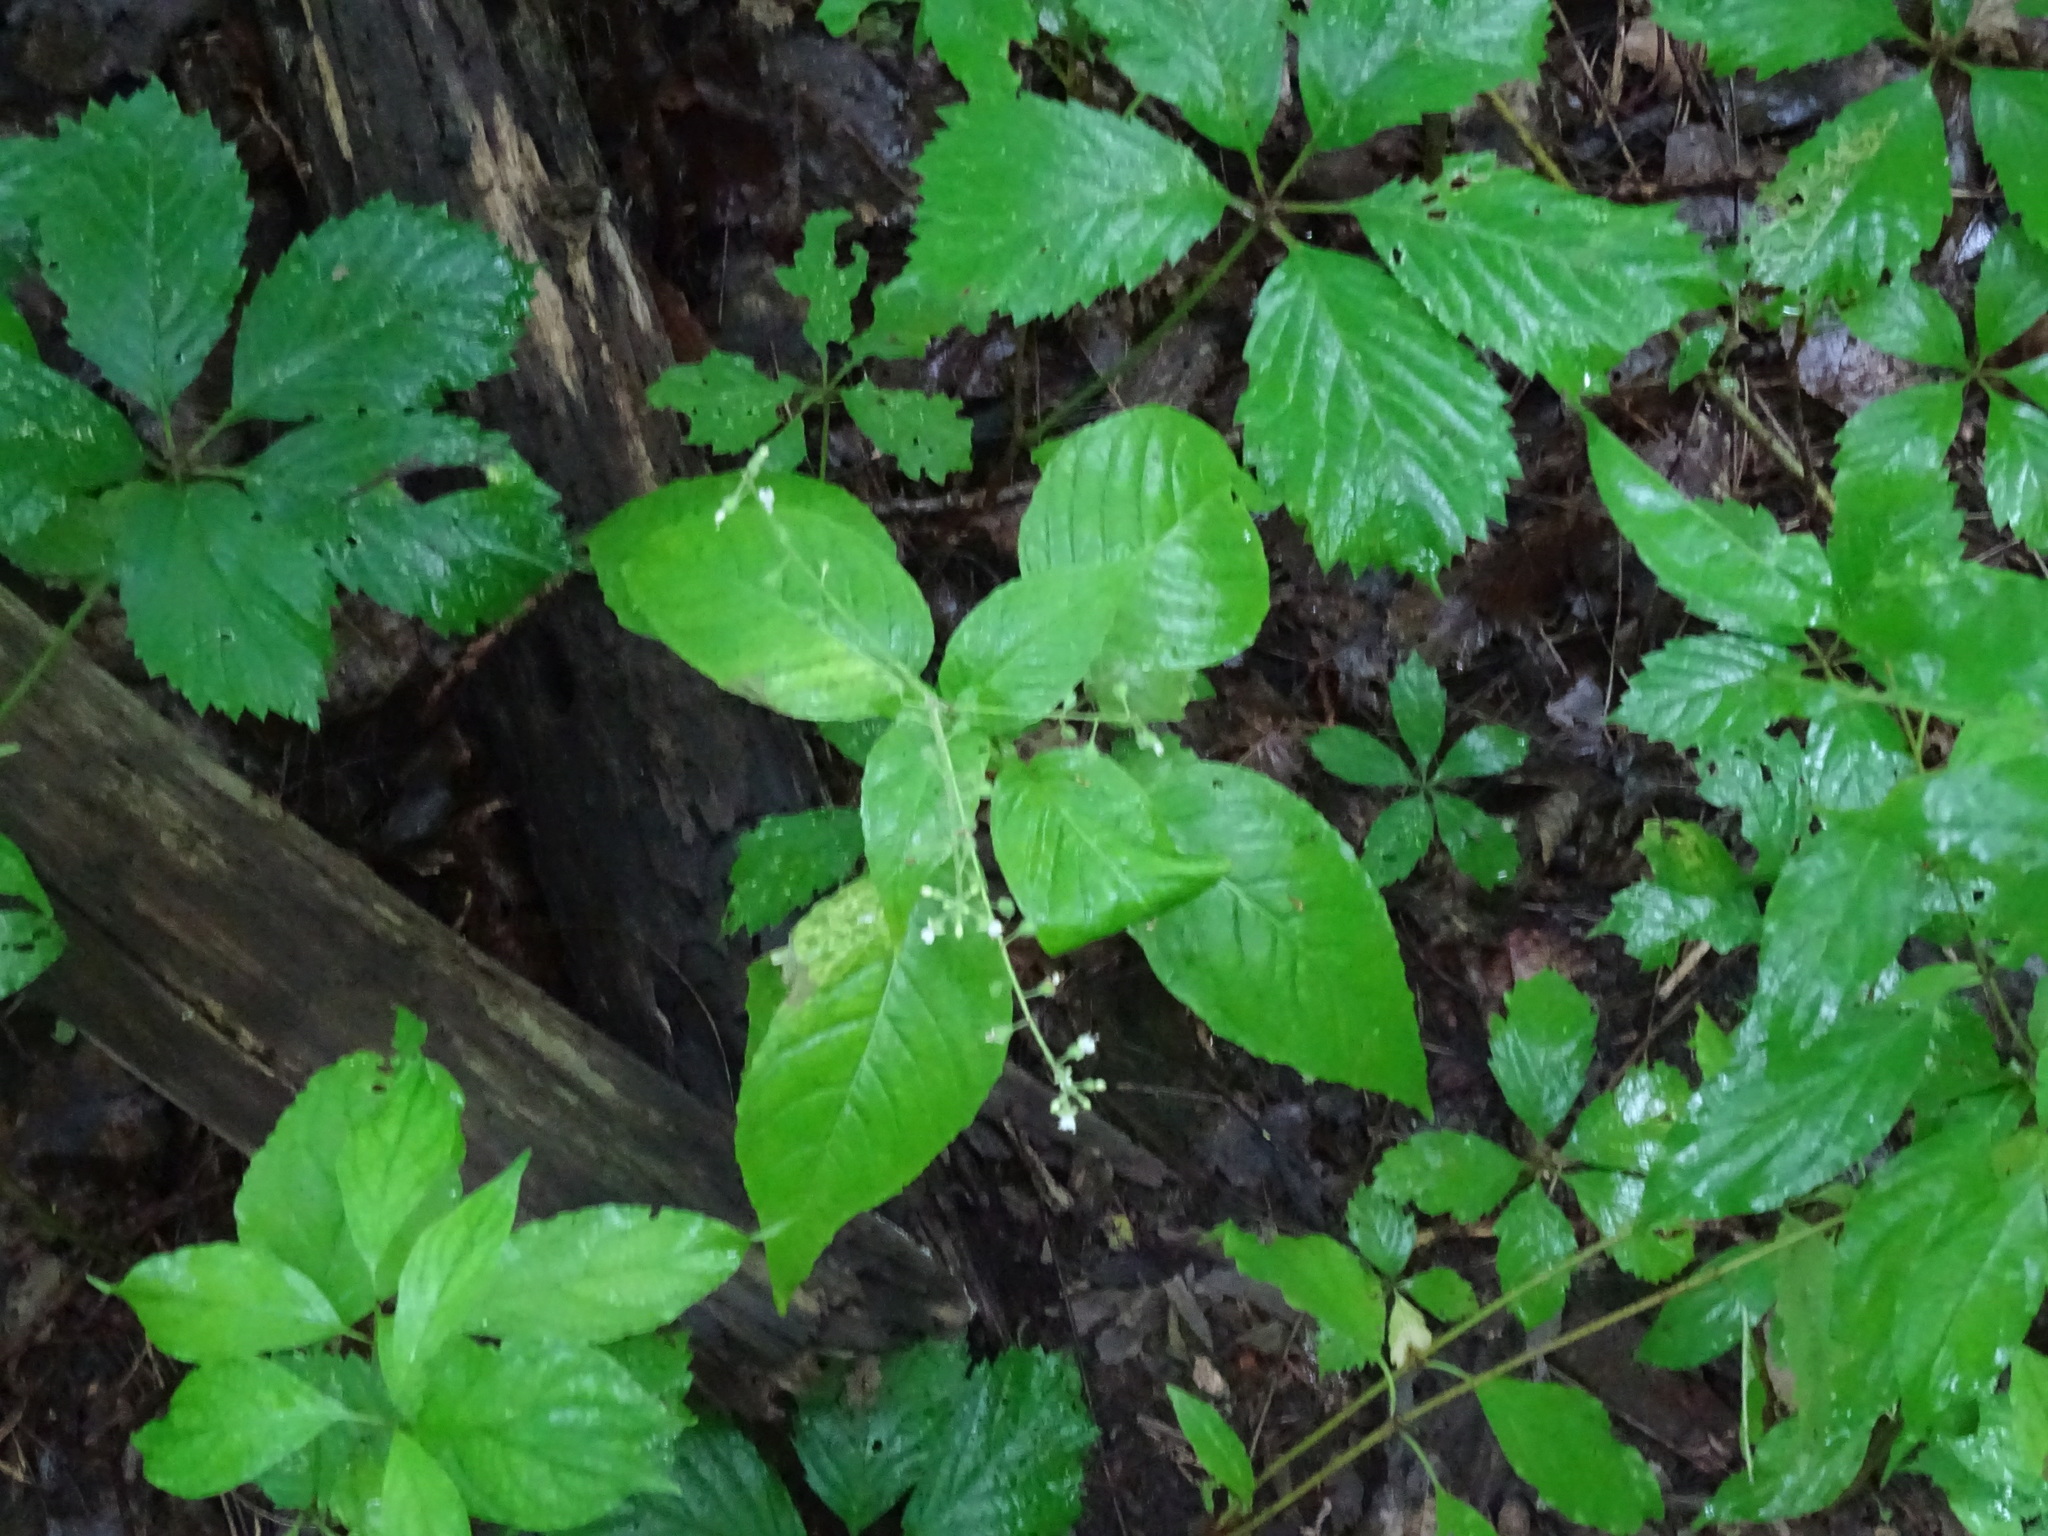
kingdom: Plantae
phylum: Tracheophyta
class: Magnoliopsida
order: Myrtales
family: Onagraceae
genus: Circaea
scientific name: Circaea canadensis
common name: Broad-leaved enchanter's nightshade
